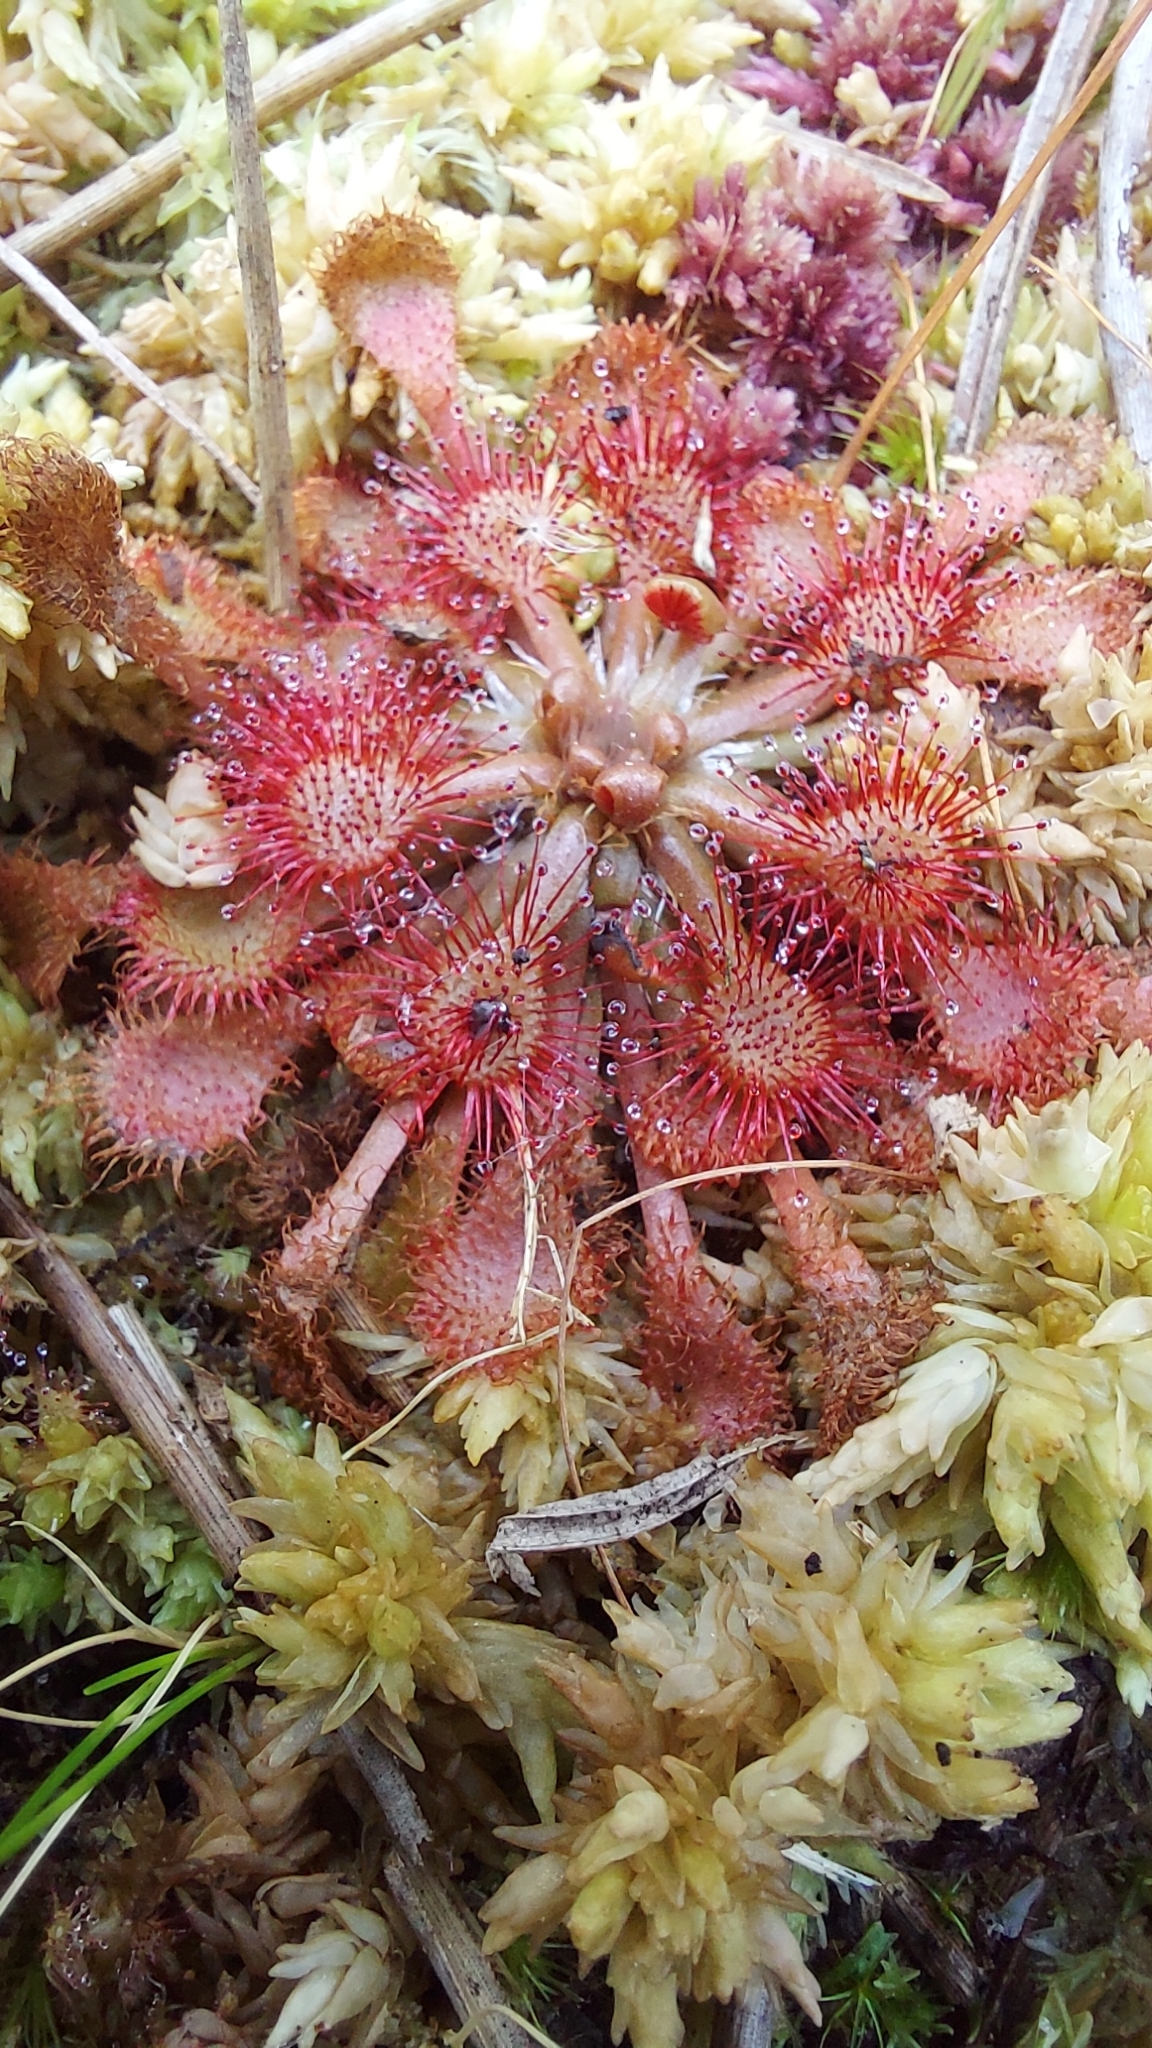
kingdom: Plantae
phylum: Tracheophyta
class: Magnoliopsida
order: Caryophyllales
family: Droseraceae
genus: Drosera
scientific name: Drosera capillaris
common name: Pink sundew
